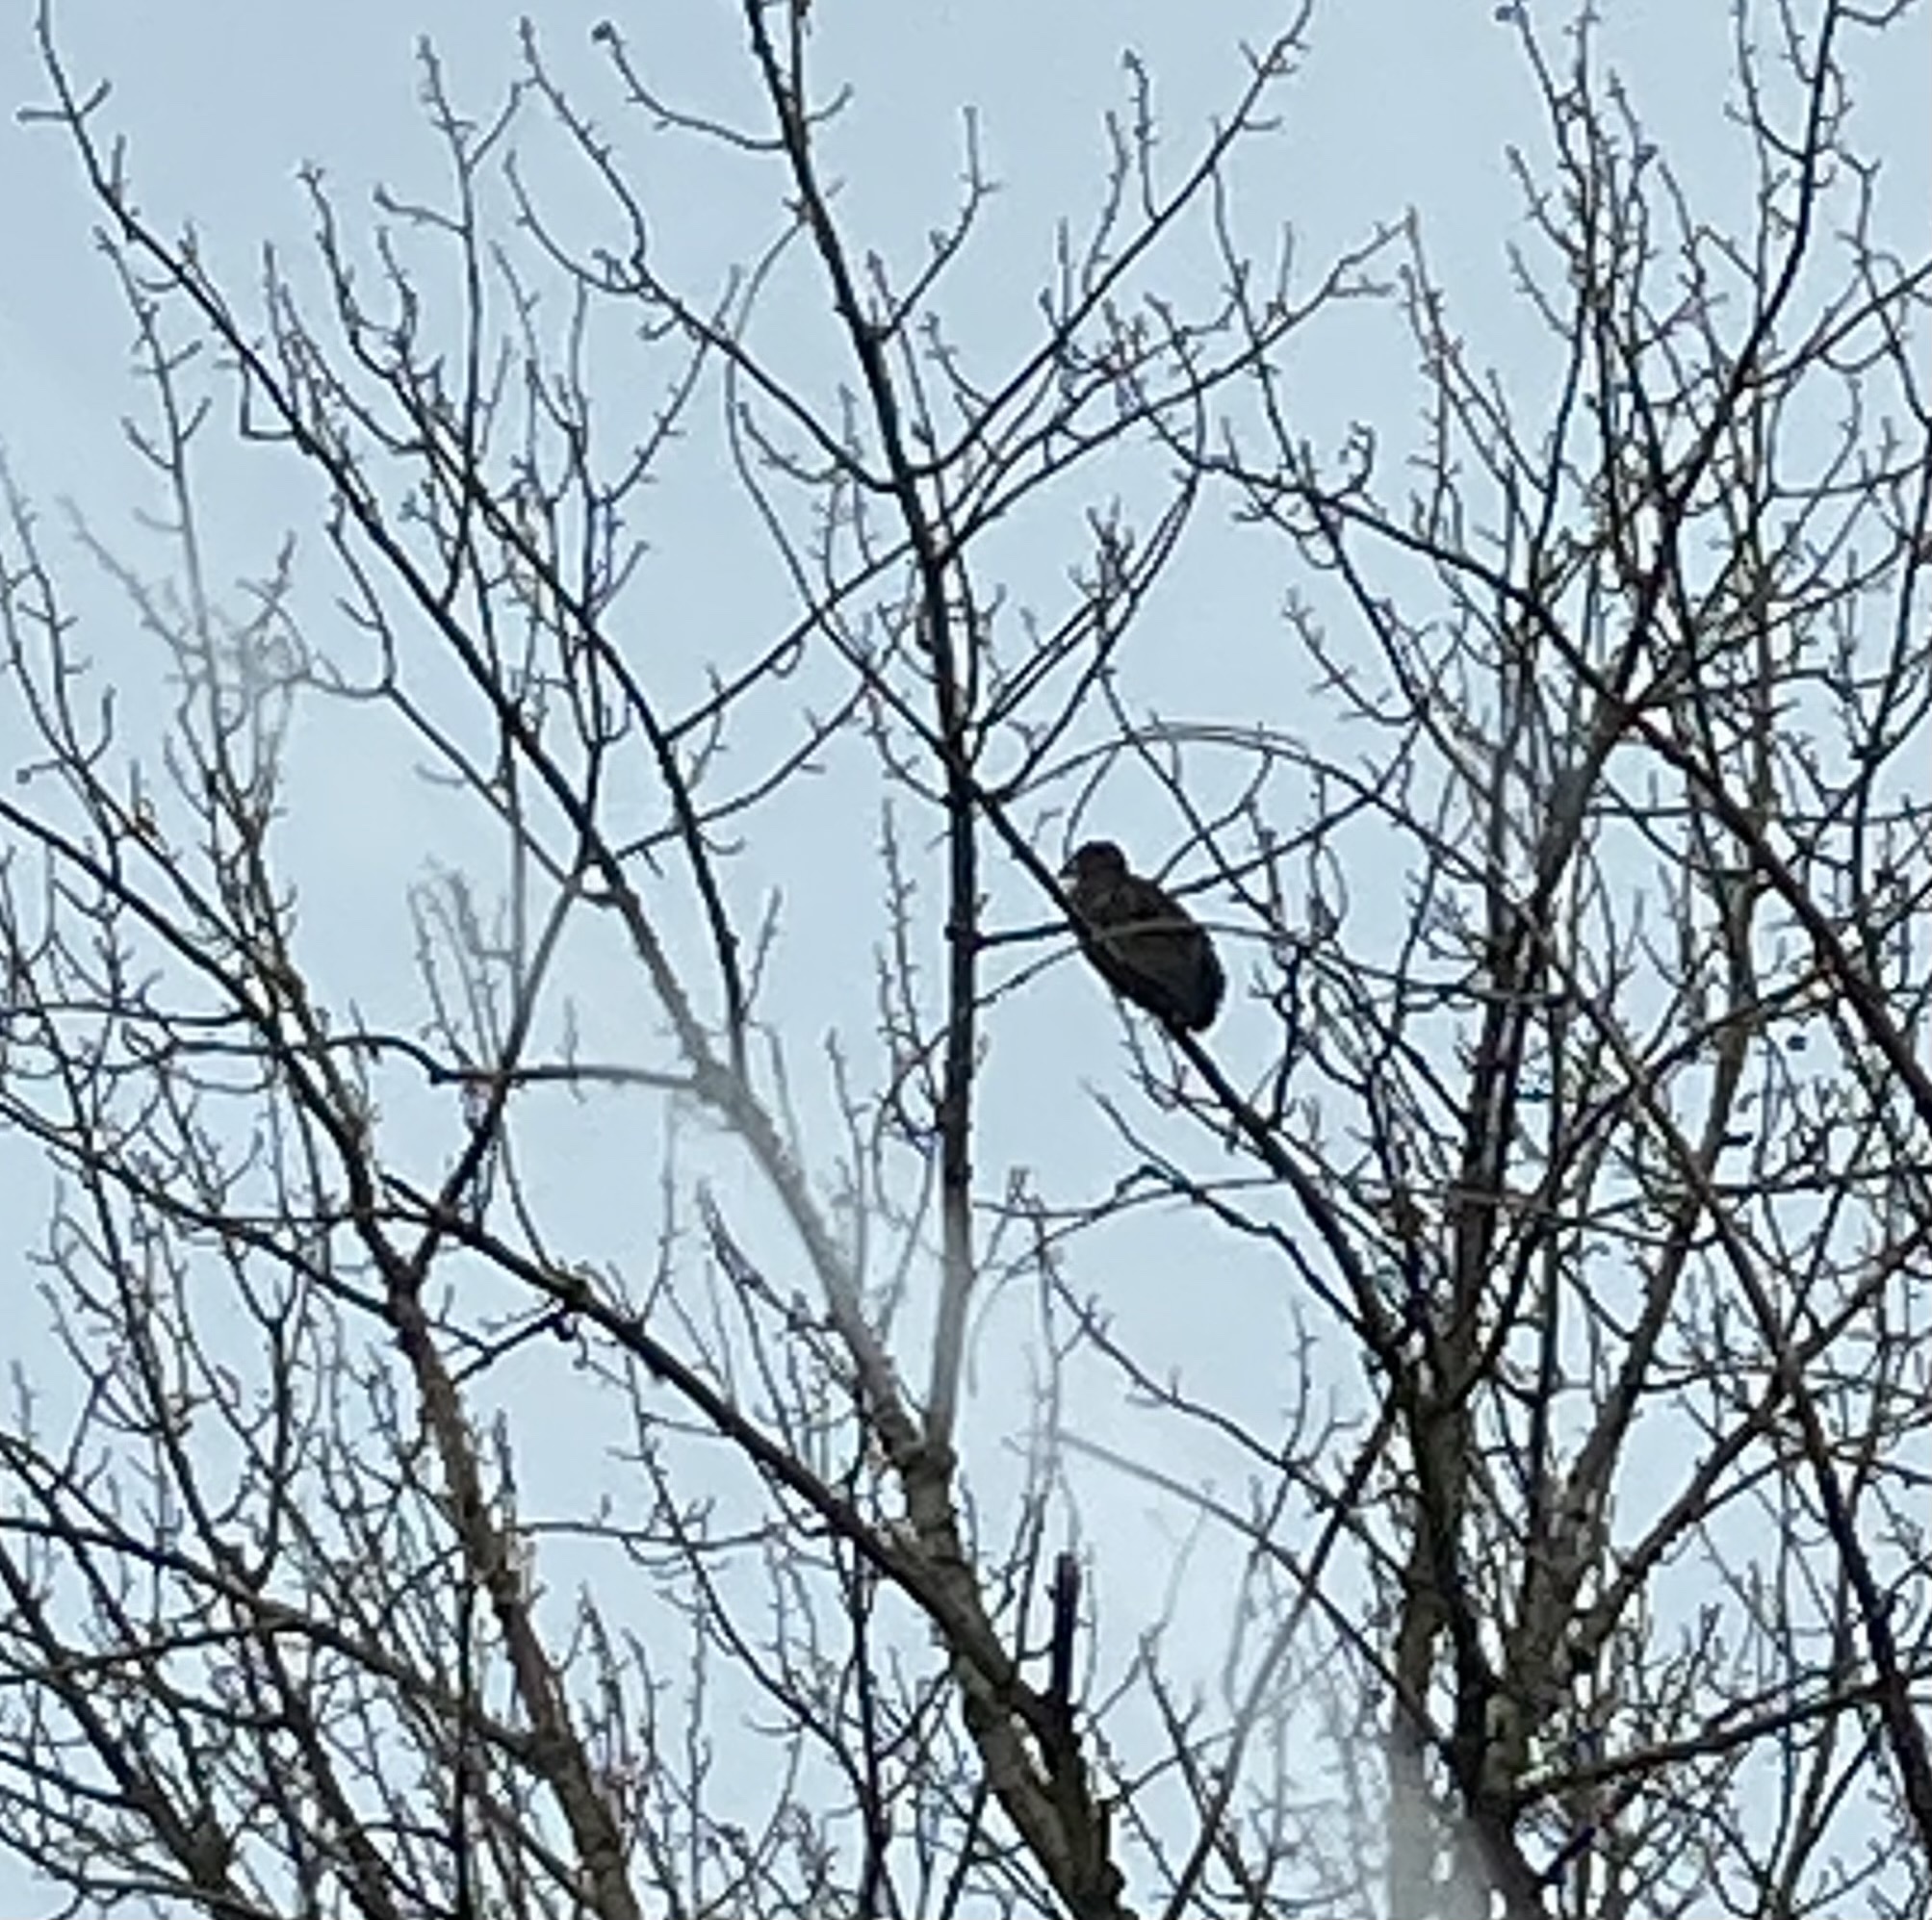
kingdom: Animalia
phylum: Chordata
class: Aves
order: Accipitriformes
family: Accipitridae
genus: Haliaeetus
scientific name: Haliaeetus leucocephalus
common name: Bald eagle
